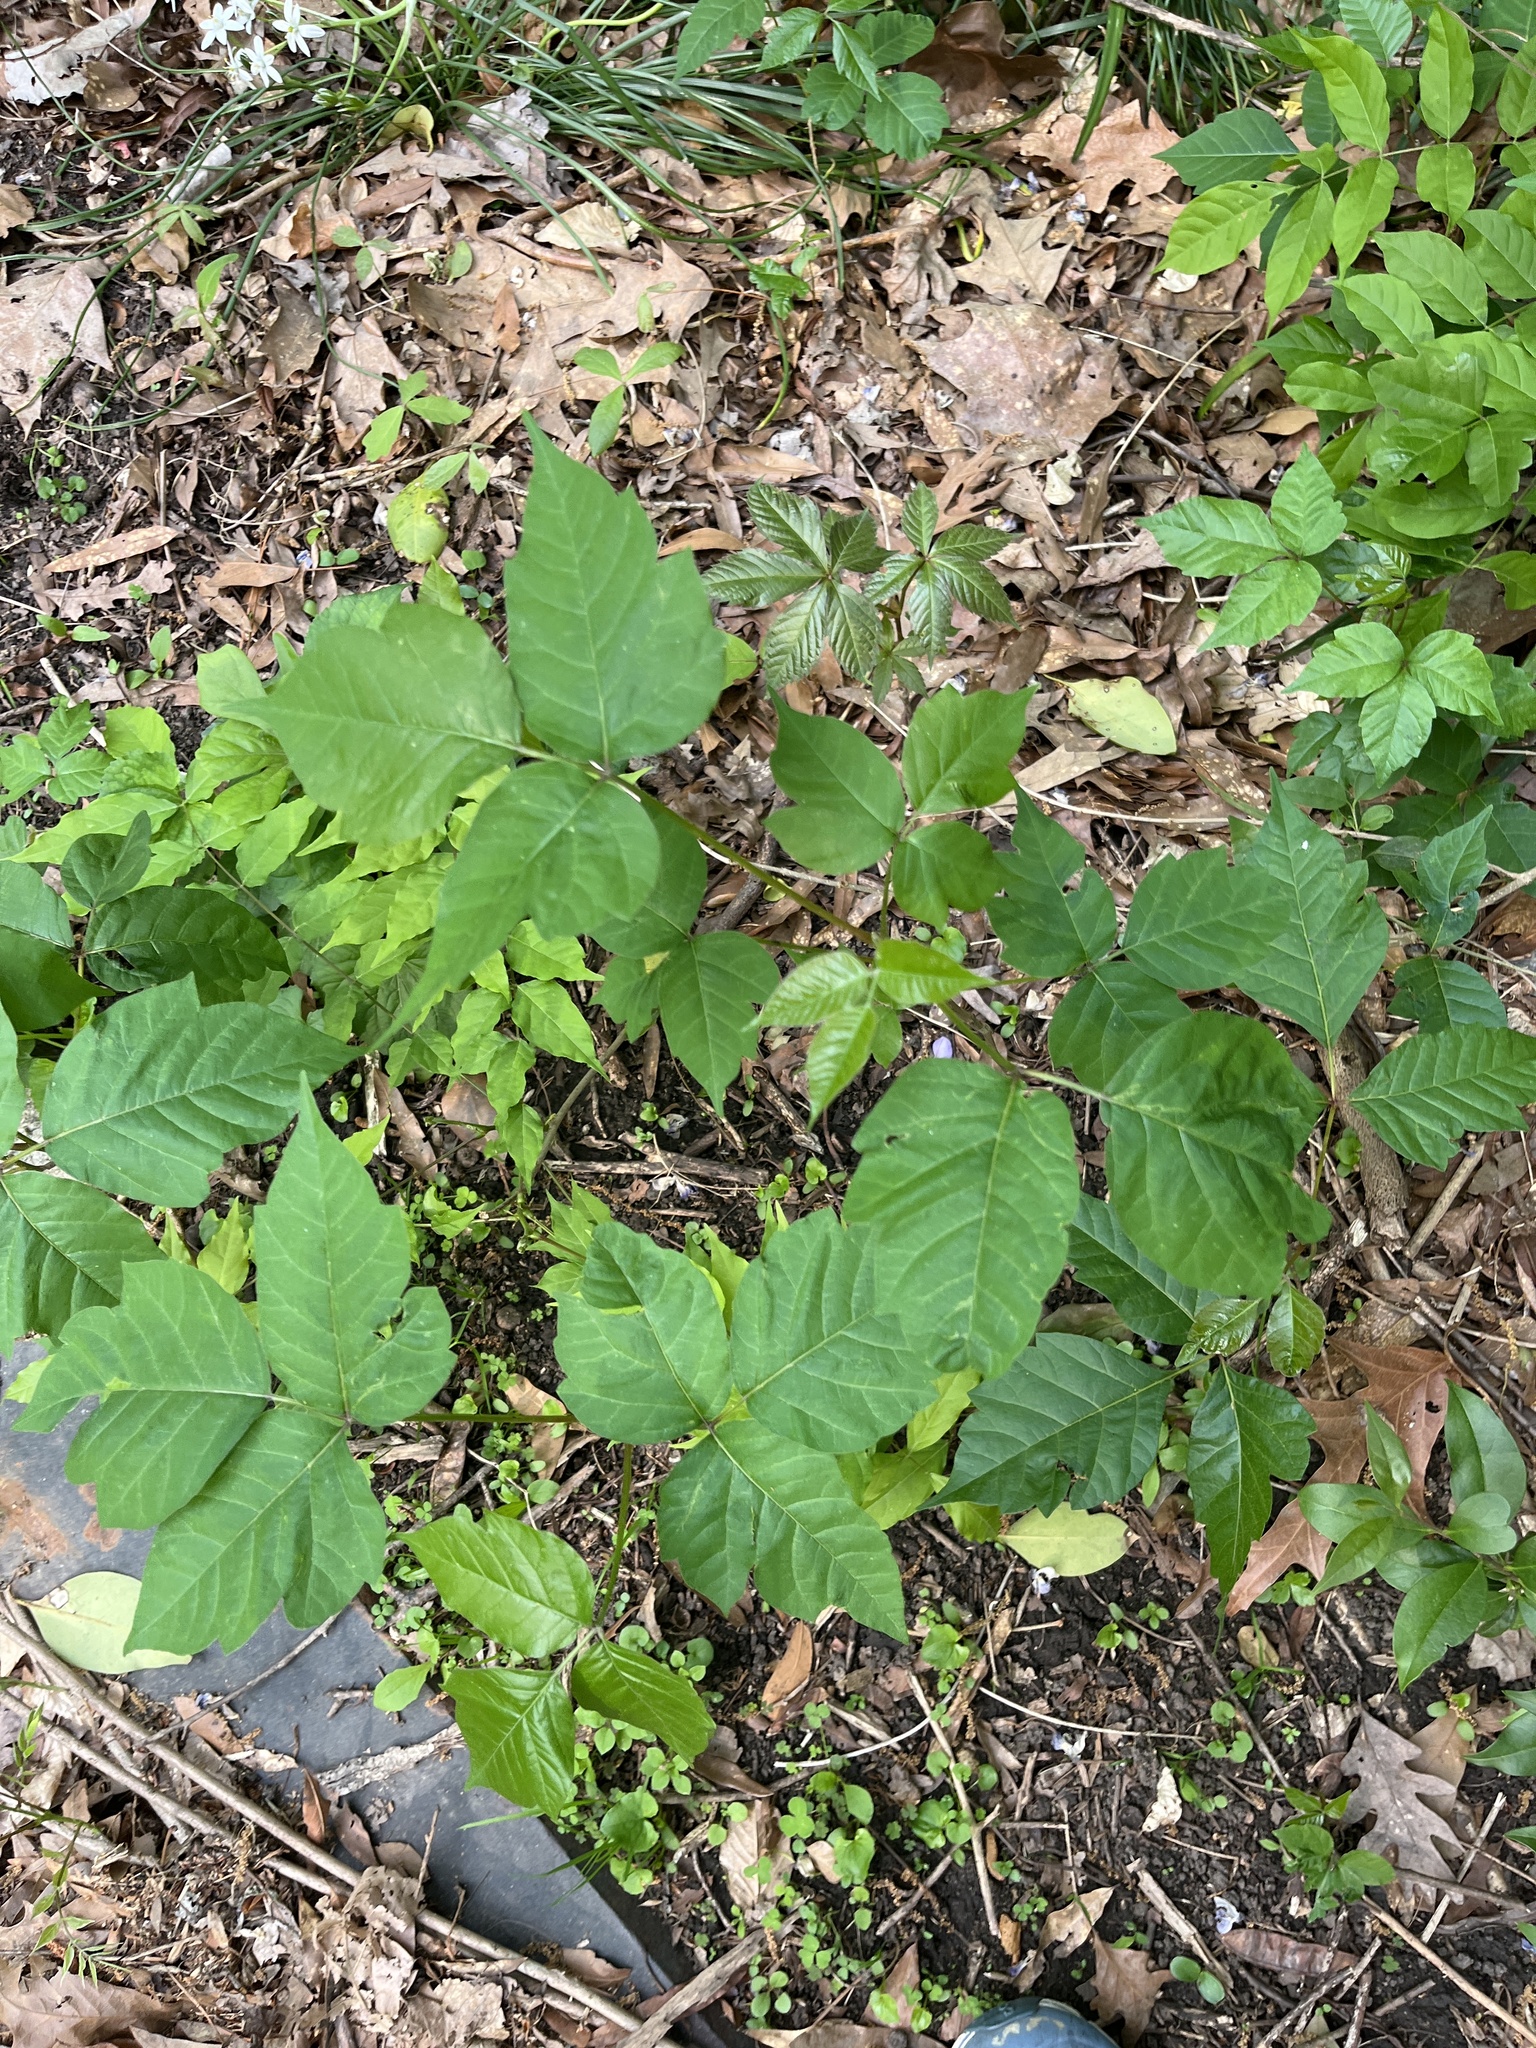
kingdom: Plantae
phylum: Tracheophyta
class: Magnoliopsida
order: Sapindales
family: Anacardiaceae
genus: Toxicodendron
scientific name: Toxicodendron radicans
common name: Poison ivy
